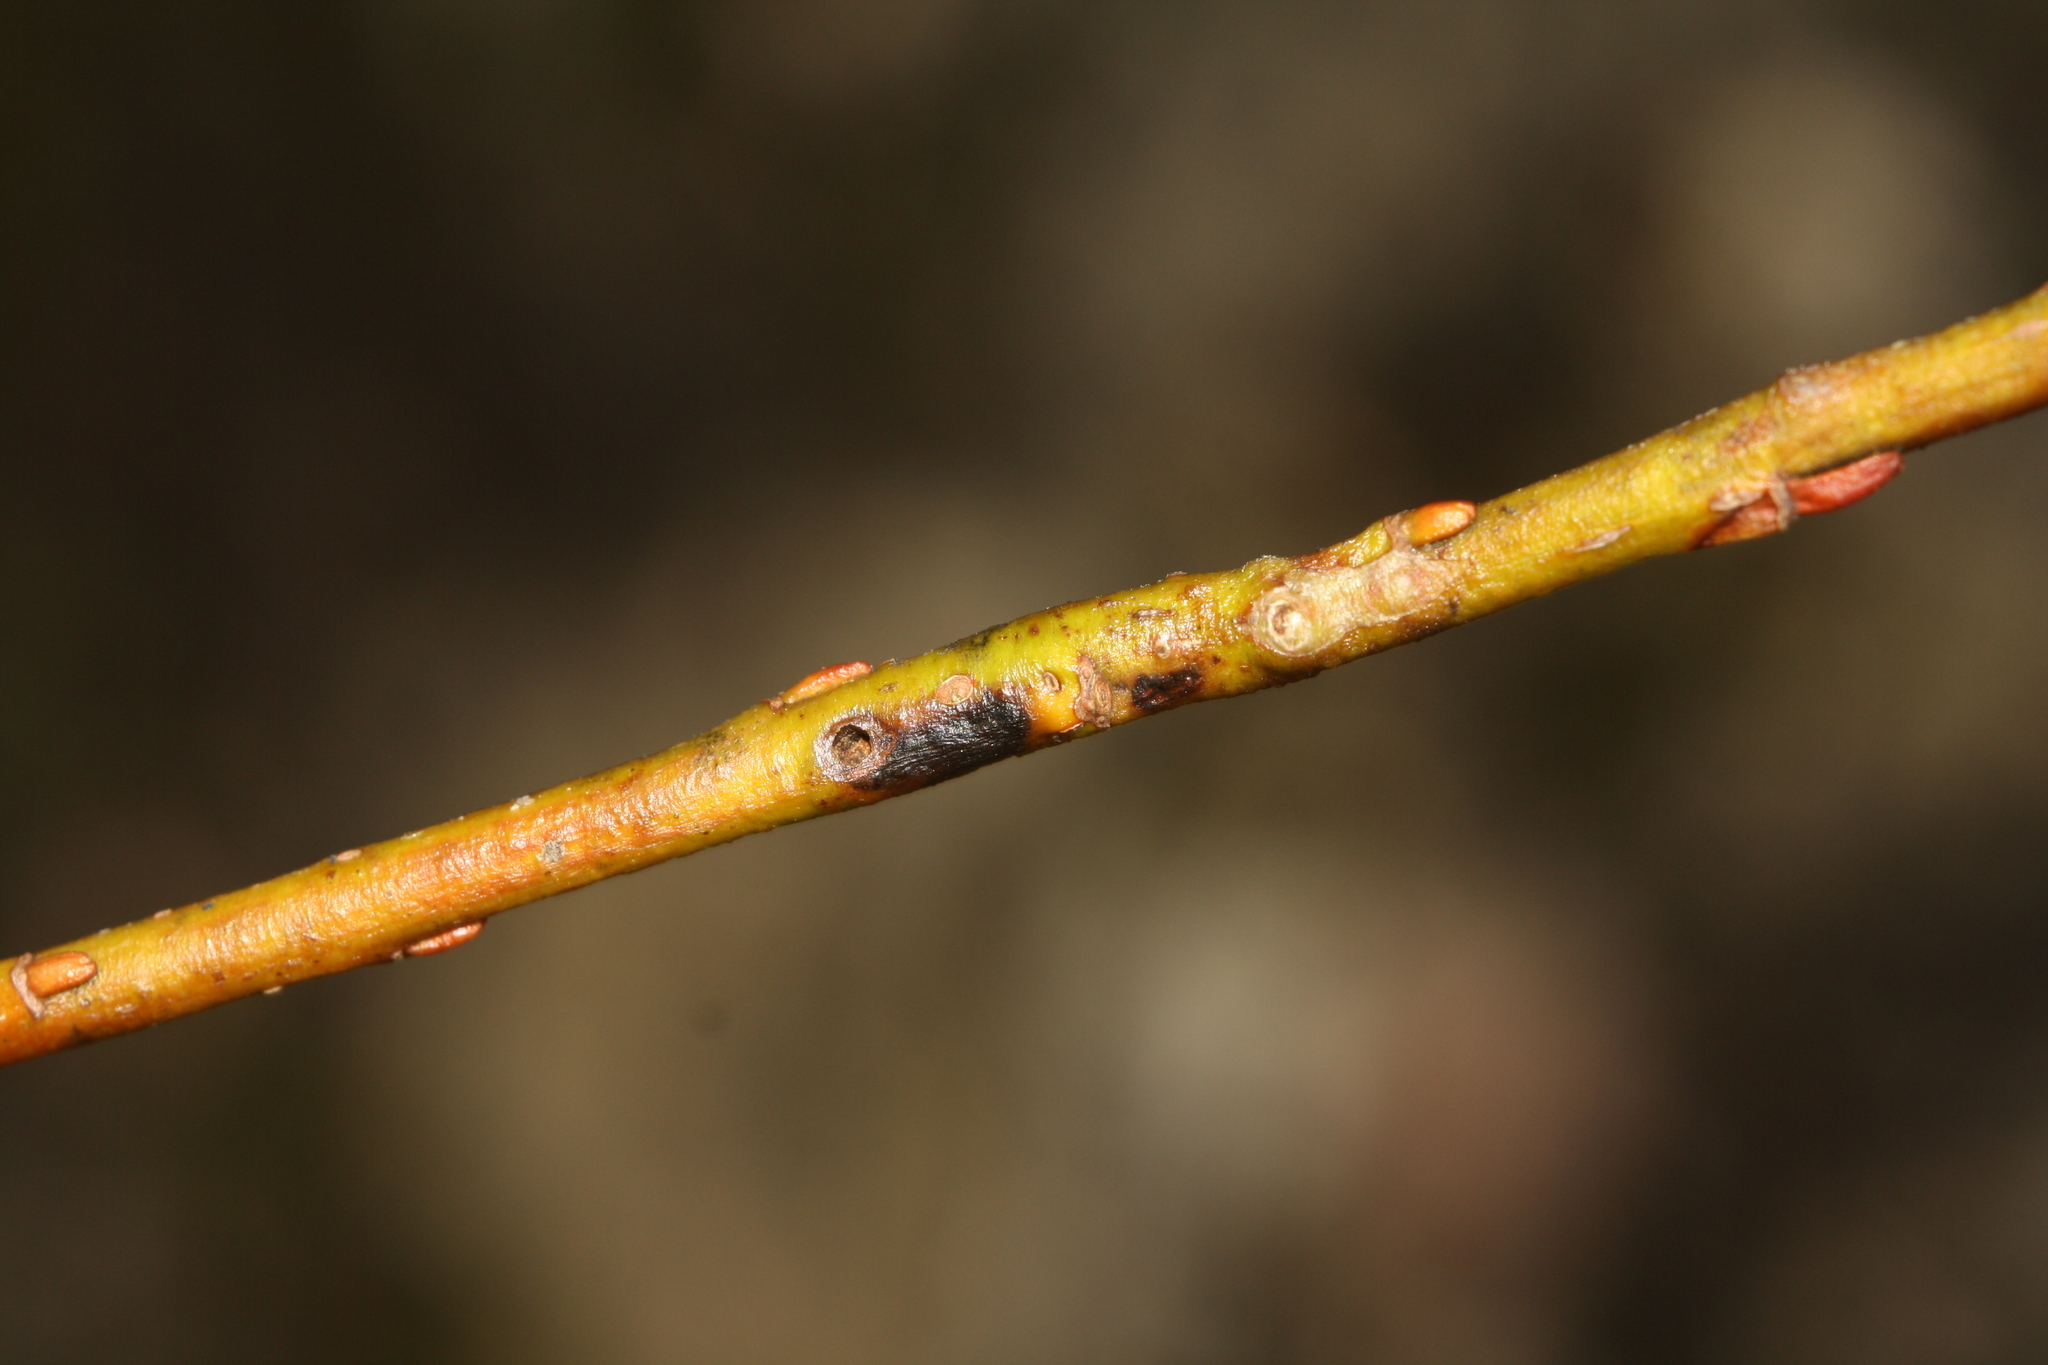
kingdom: Animalia
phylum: Arthropoda
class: Insecta
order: Hymenoptera
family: Tenthredinidae
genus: Euura
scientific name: Euura elaeagnos
